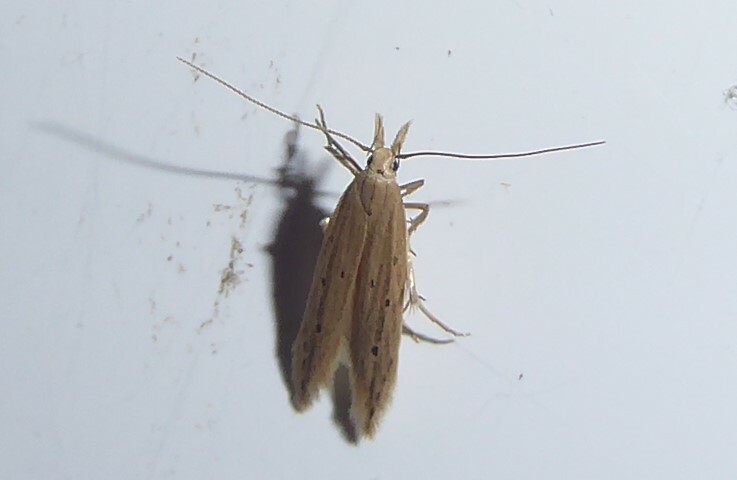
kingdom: Animalia
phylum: Arthropoda
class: Insecta
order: Lepidoptera
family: Gelechiidae
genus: Epiphthora
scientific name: Epiphthora calamogonus
